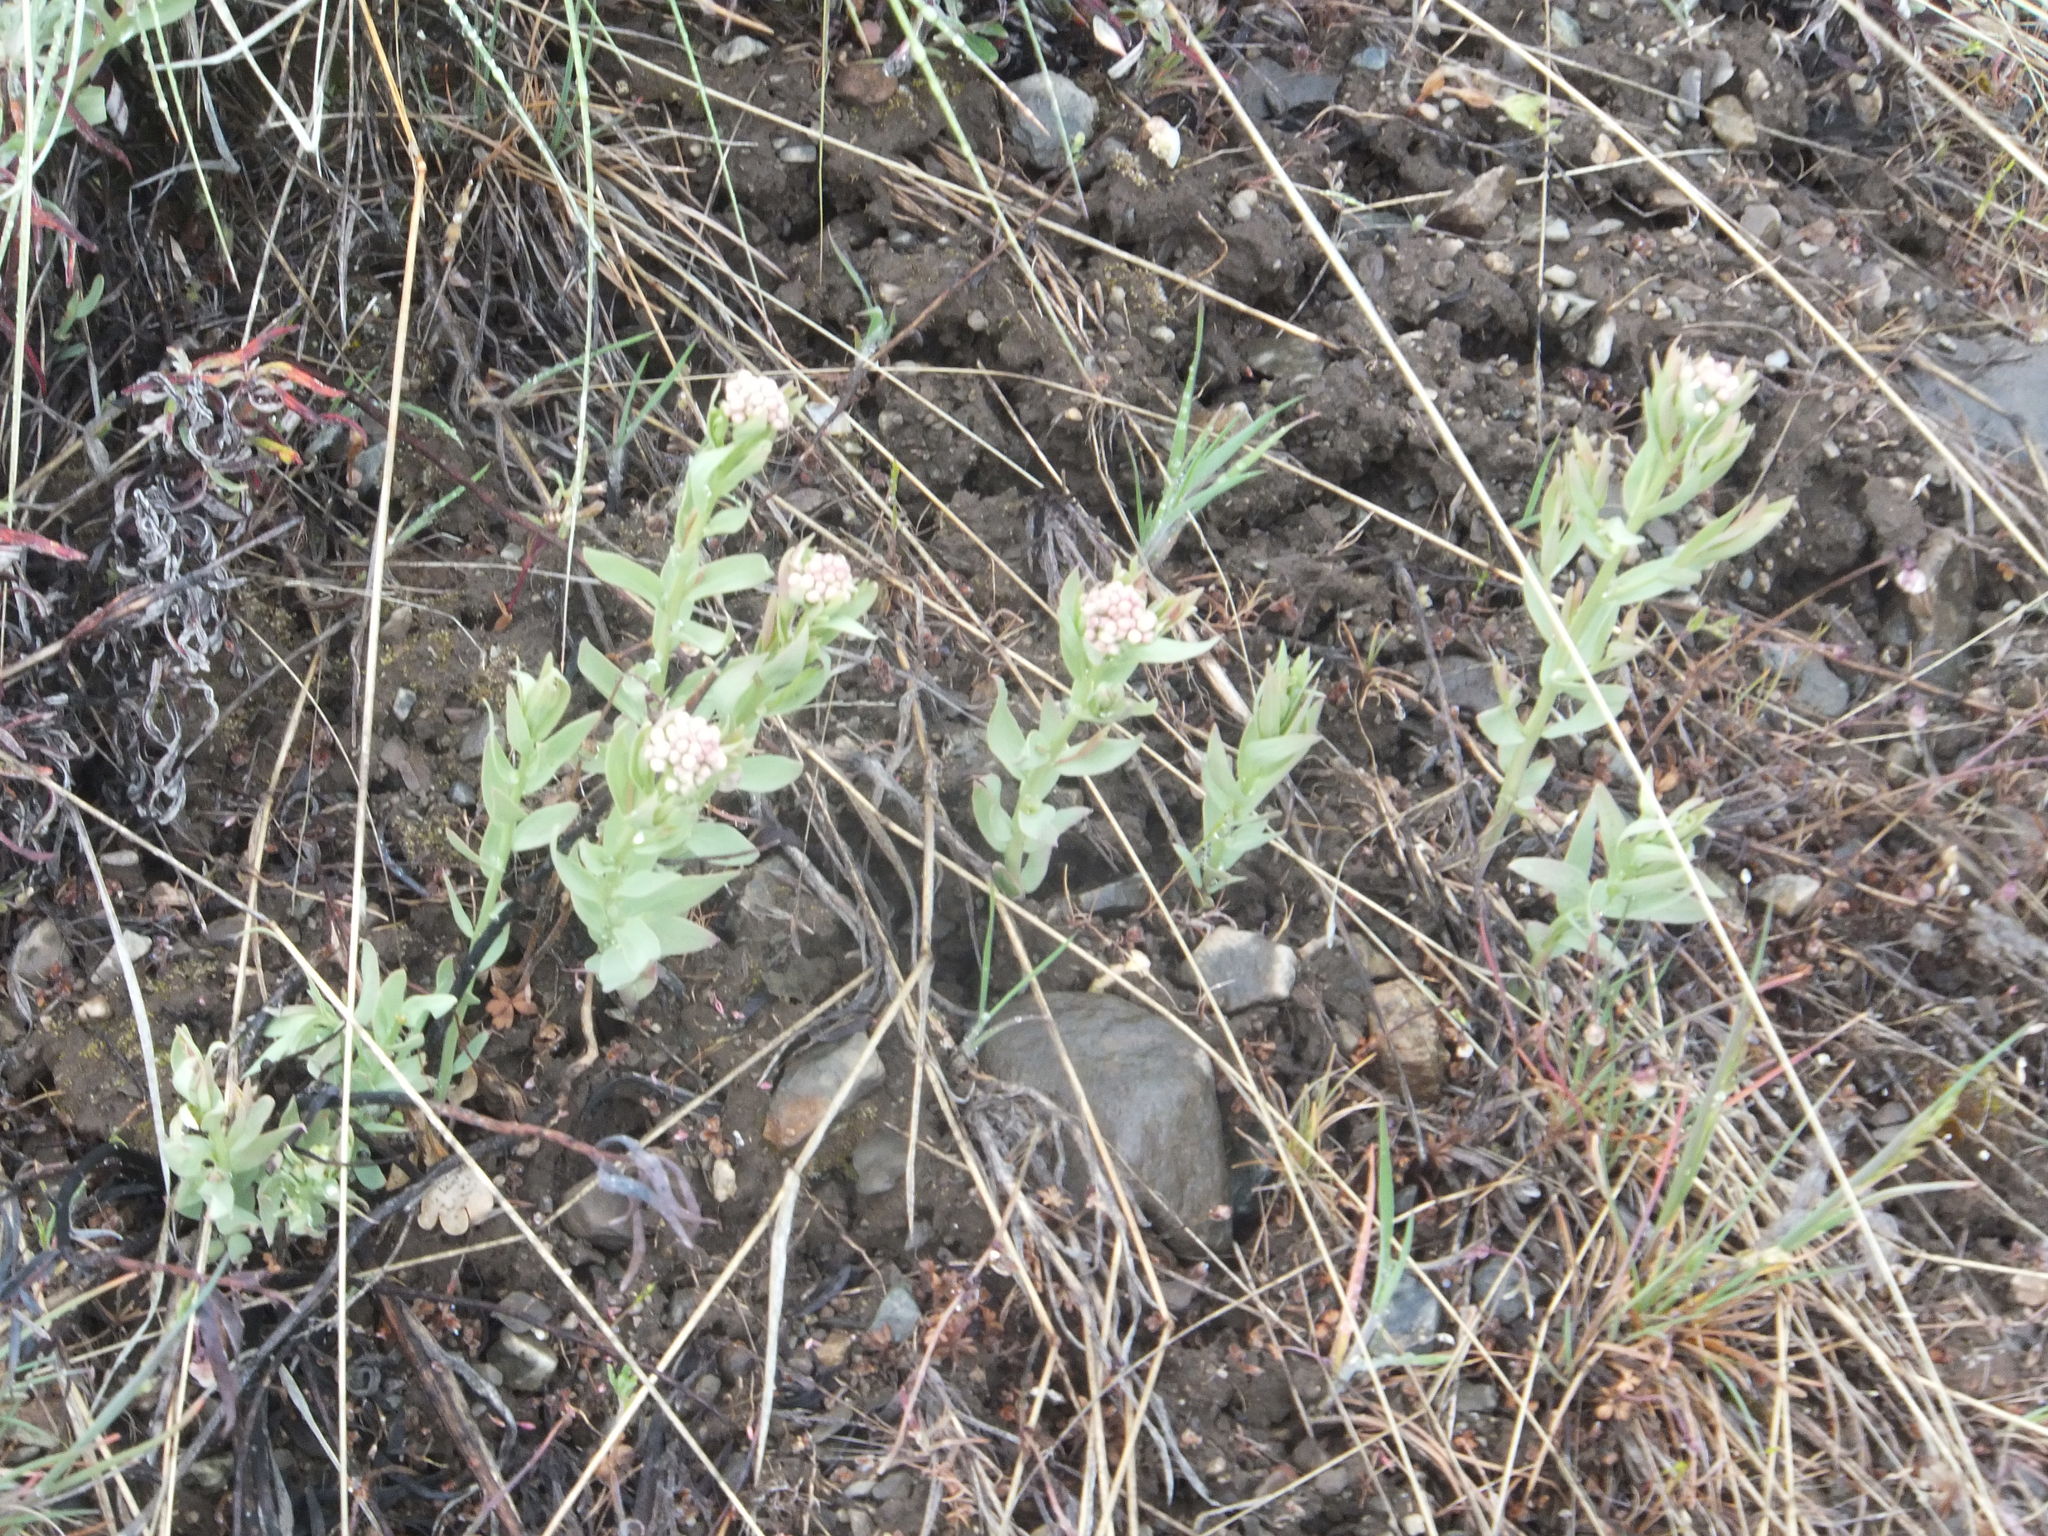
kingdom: Plantae
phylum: Tracheophyta
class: Magnoliopsida
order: Santalales
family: Comandraceae
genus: Comandra
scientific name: Comandra umbellata
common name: Bastard toadflax
